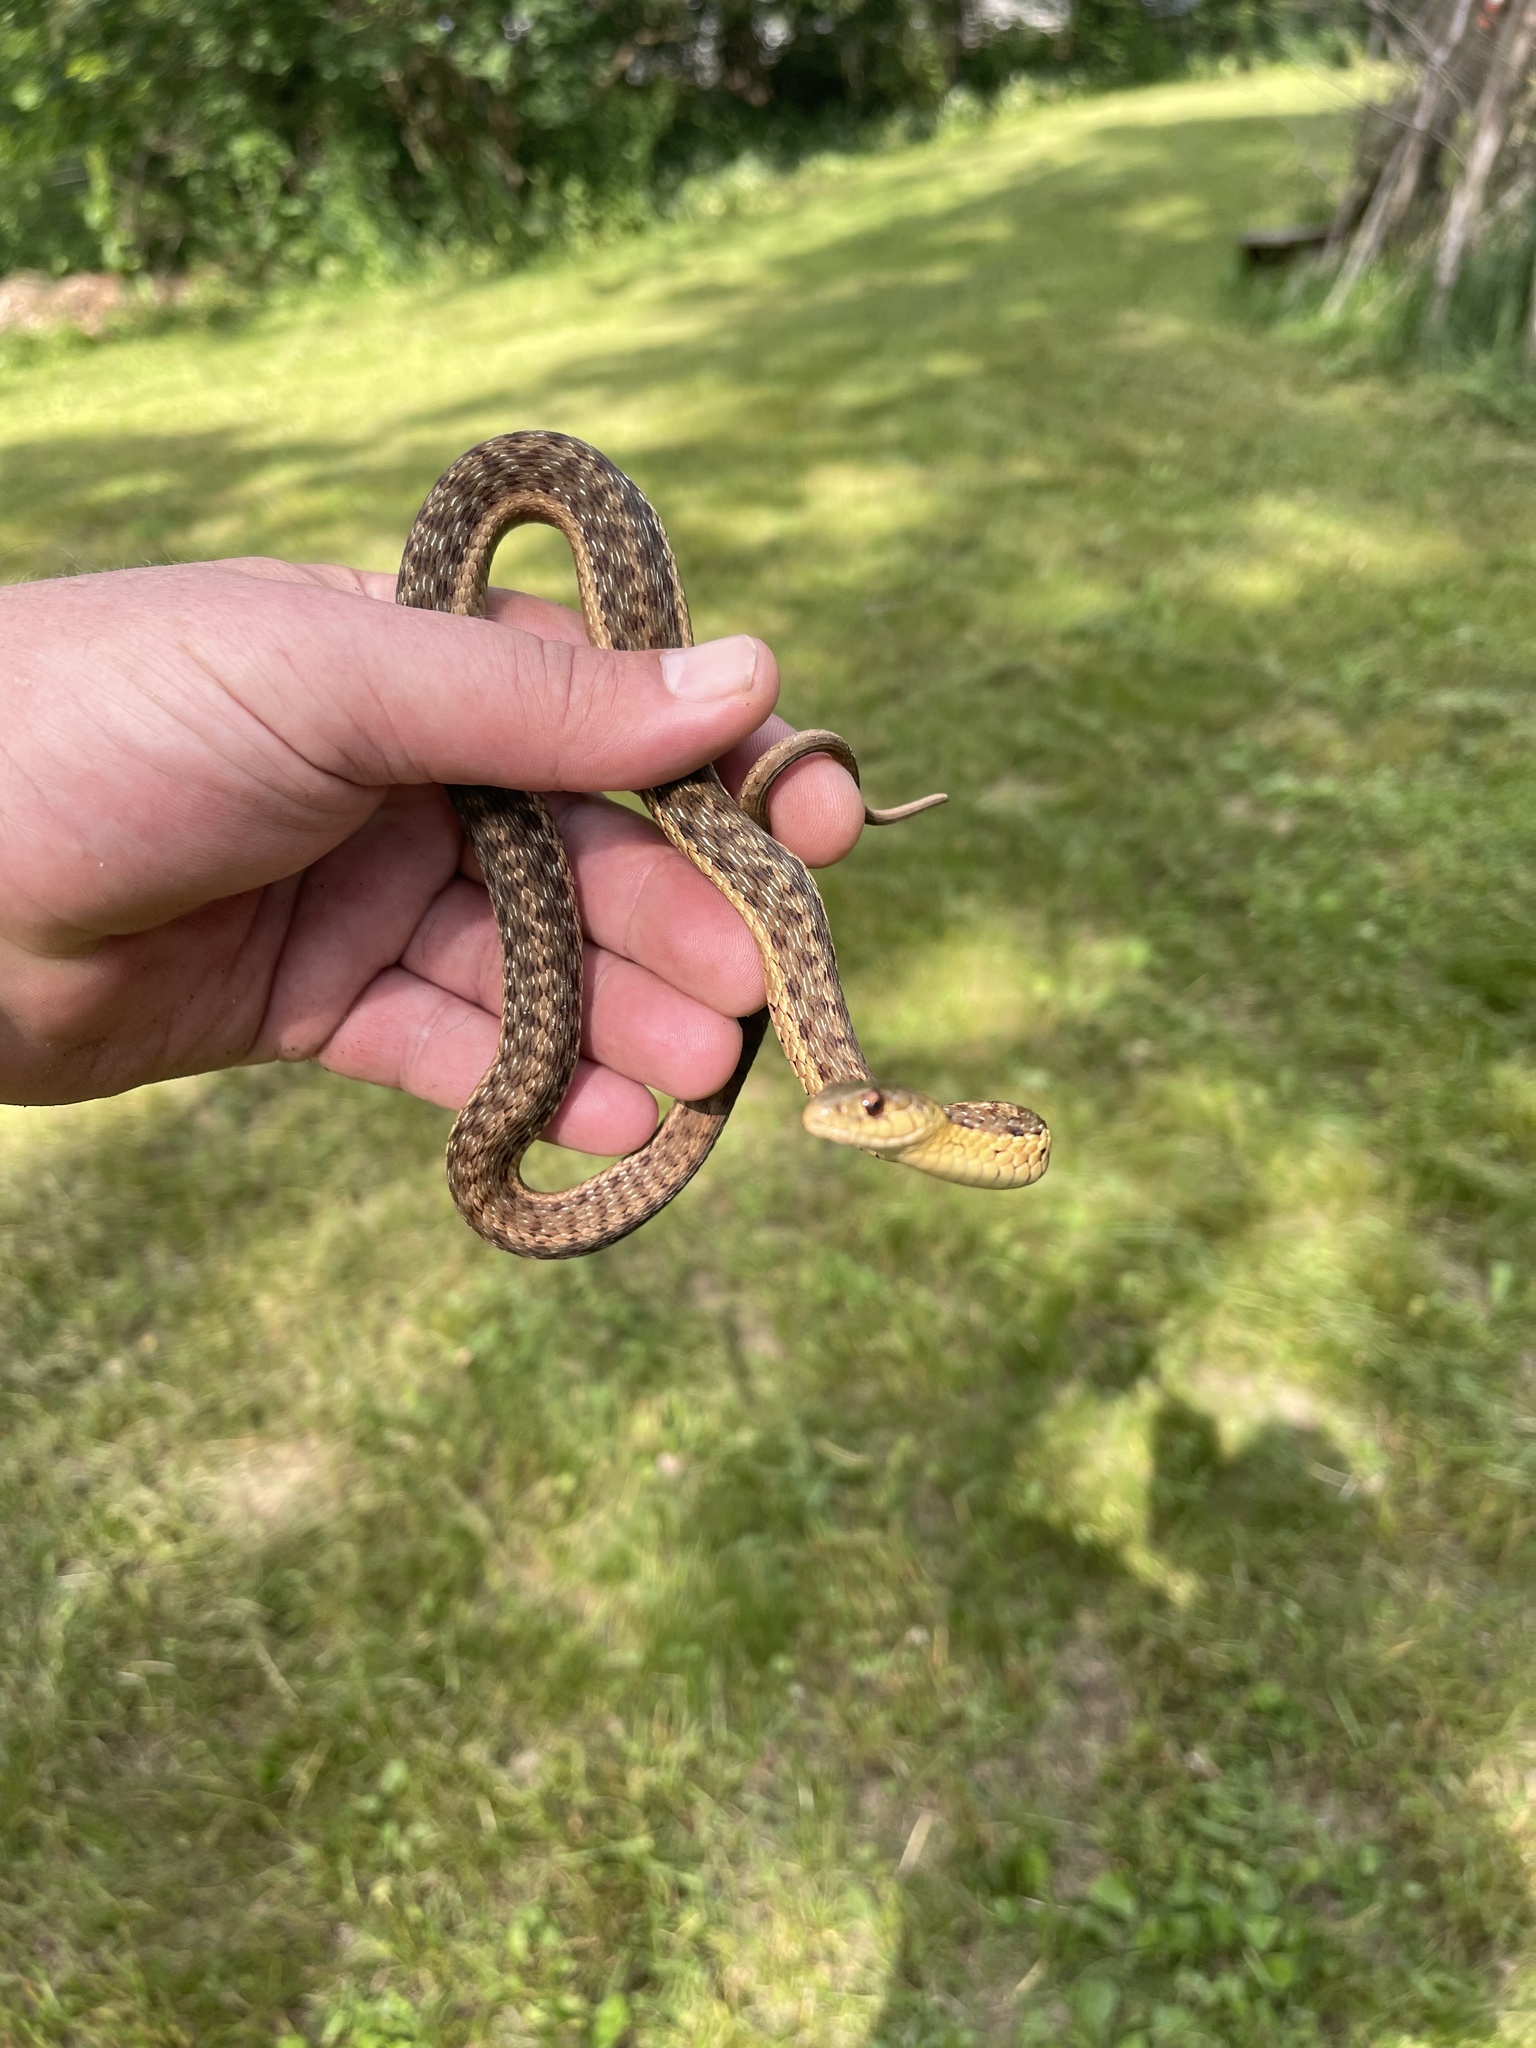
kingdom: Animalia
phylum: Chordata
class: Squamata
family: Colubridae
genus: Thamnophis
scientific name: Thamnophis sirtalis
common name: Common garter snake
